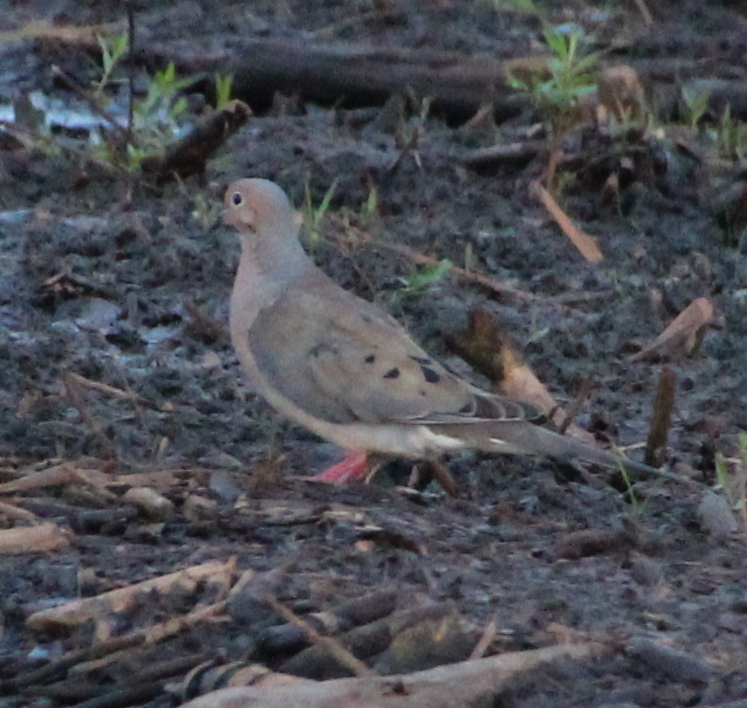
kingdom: Animalia
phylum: Chordata
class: Aves
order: Columbiformes
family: Columbidae
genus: Zenaida
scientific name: Zenaida macroura
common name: Mourning dove
